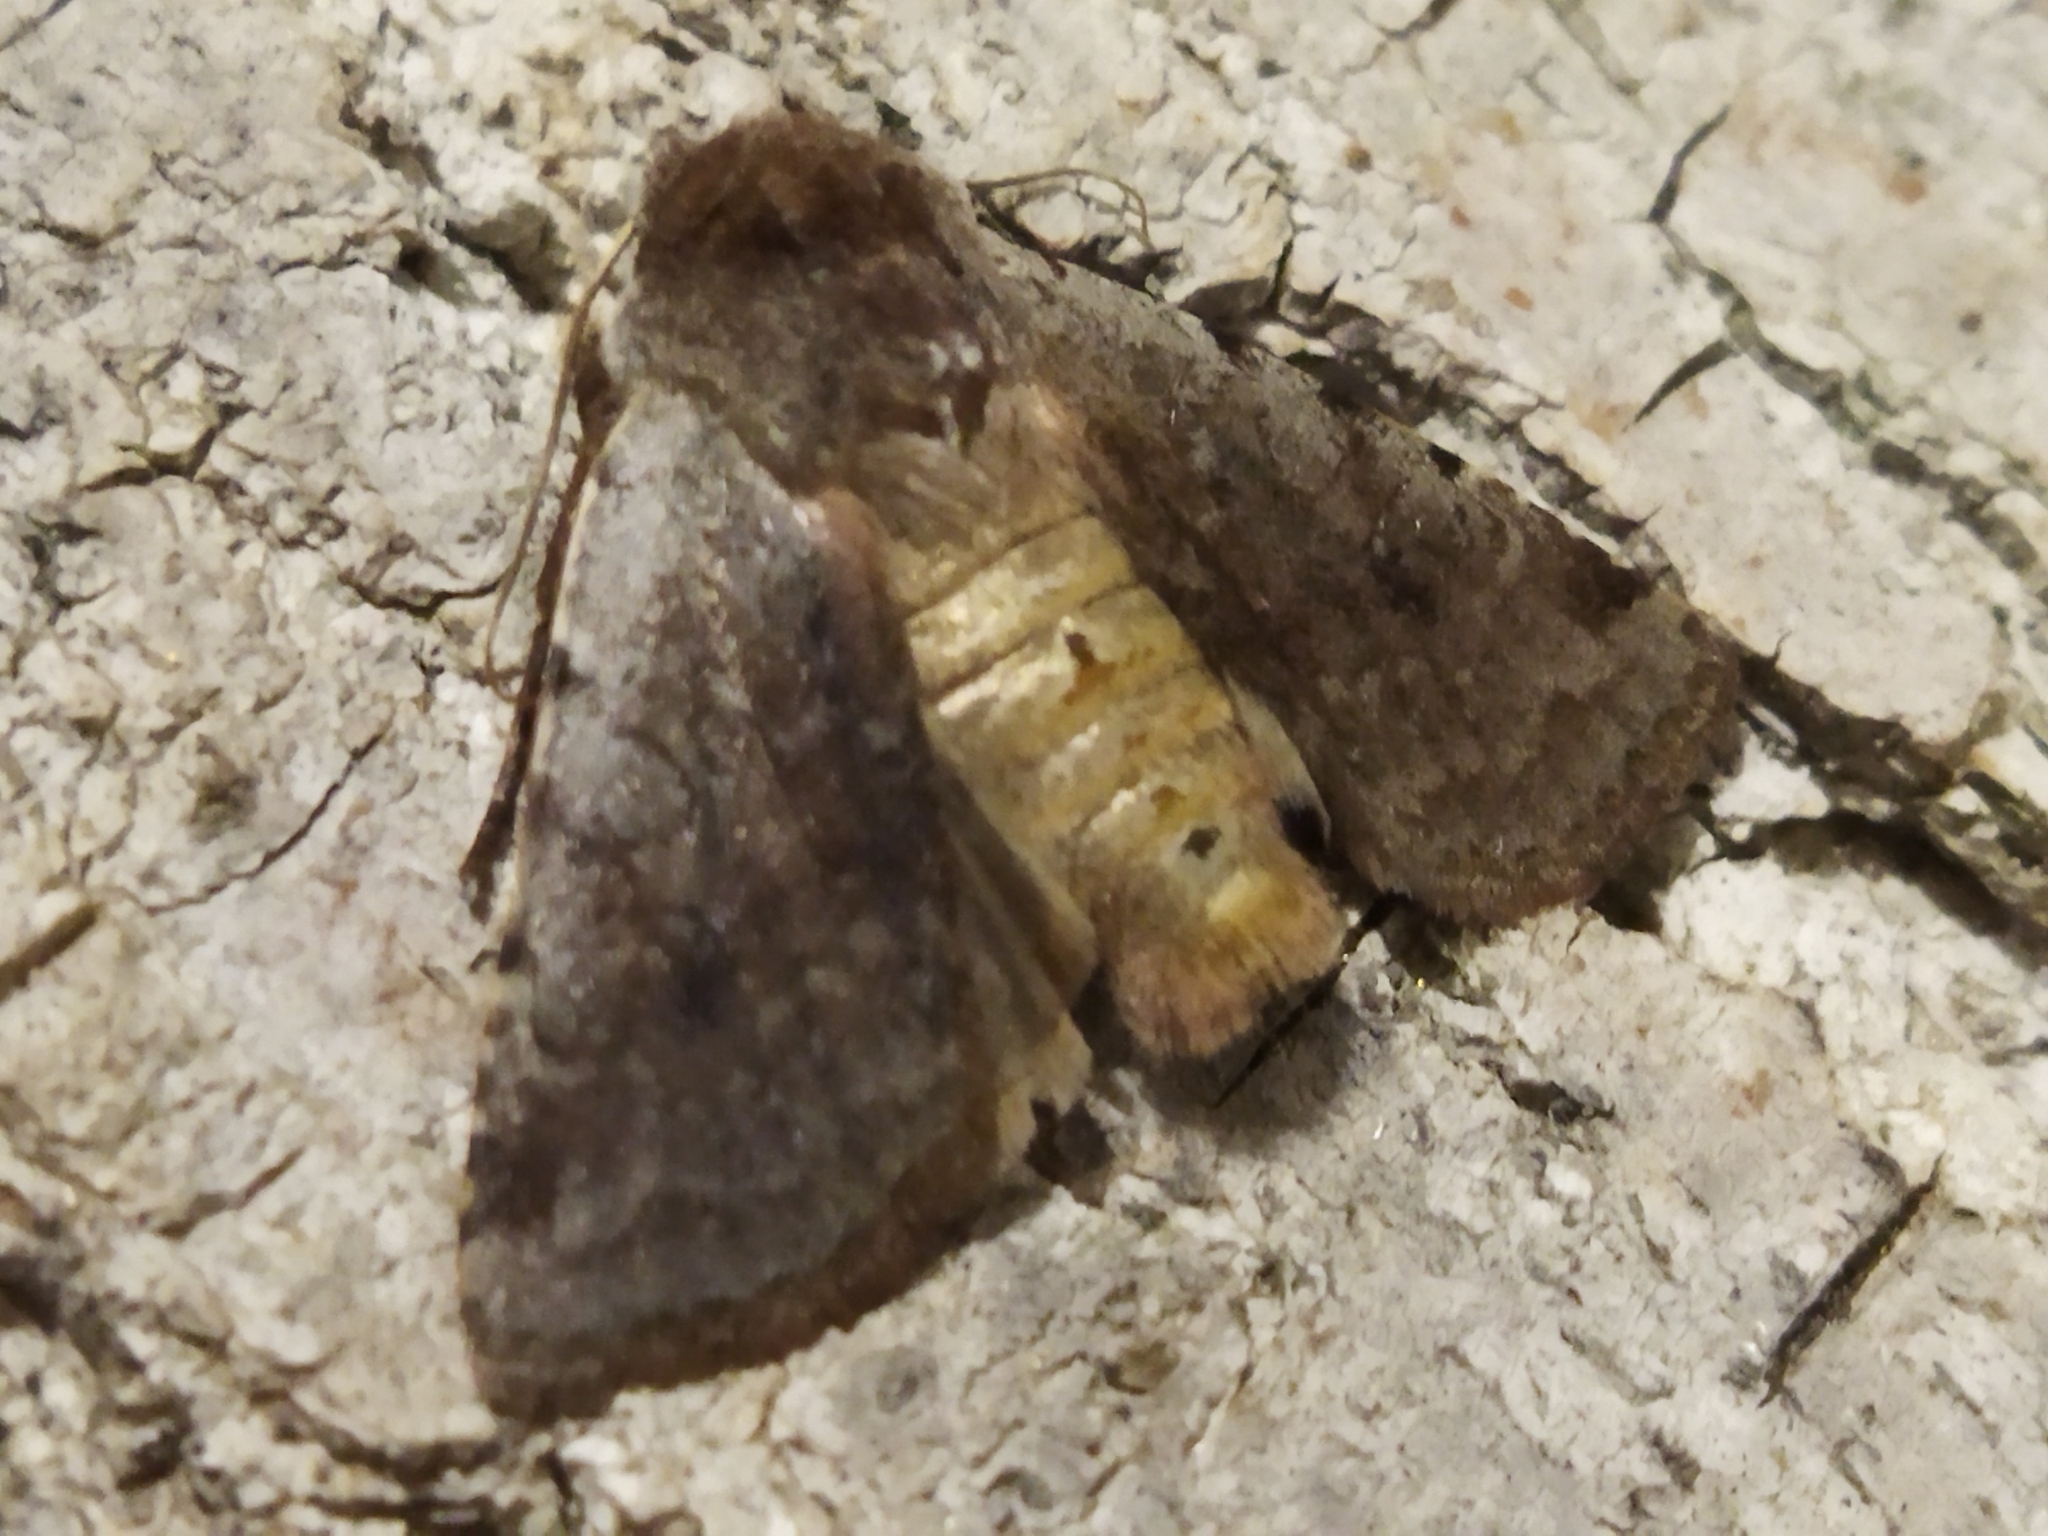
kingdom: Animalia
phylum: Arthropoda
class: Insecta
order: Lepidoptera
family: Noctuidae
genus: Cerastis
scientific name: Cerastis rubricosa
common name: Red chestnut
